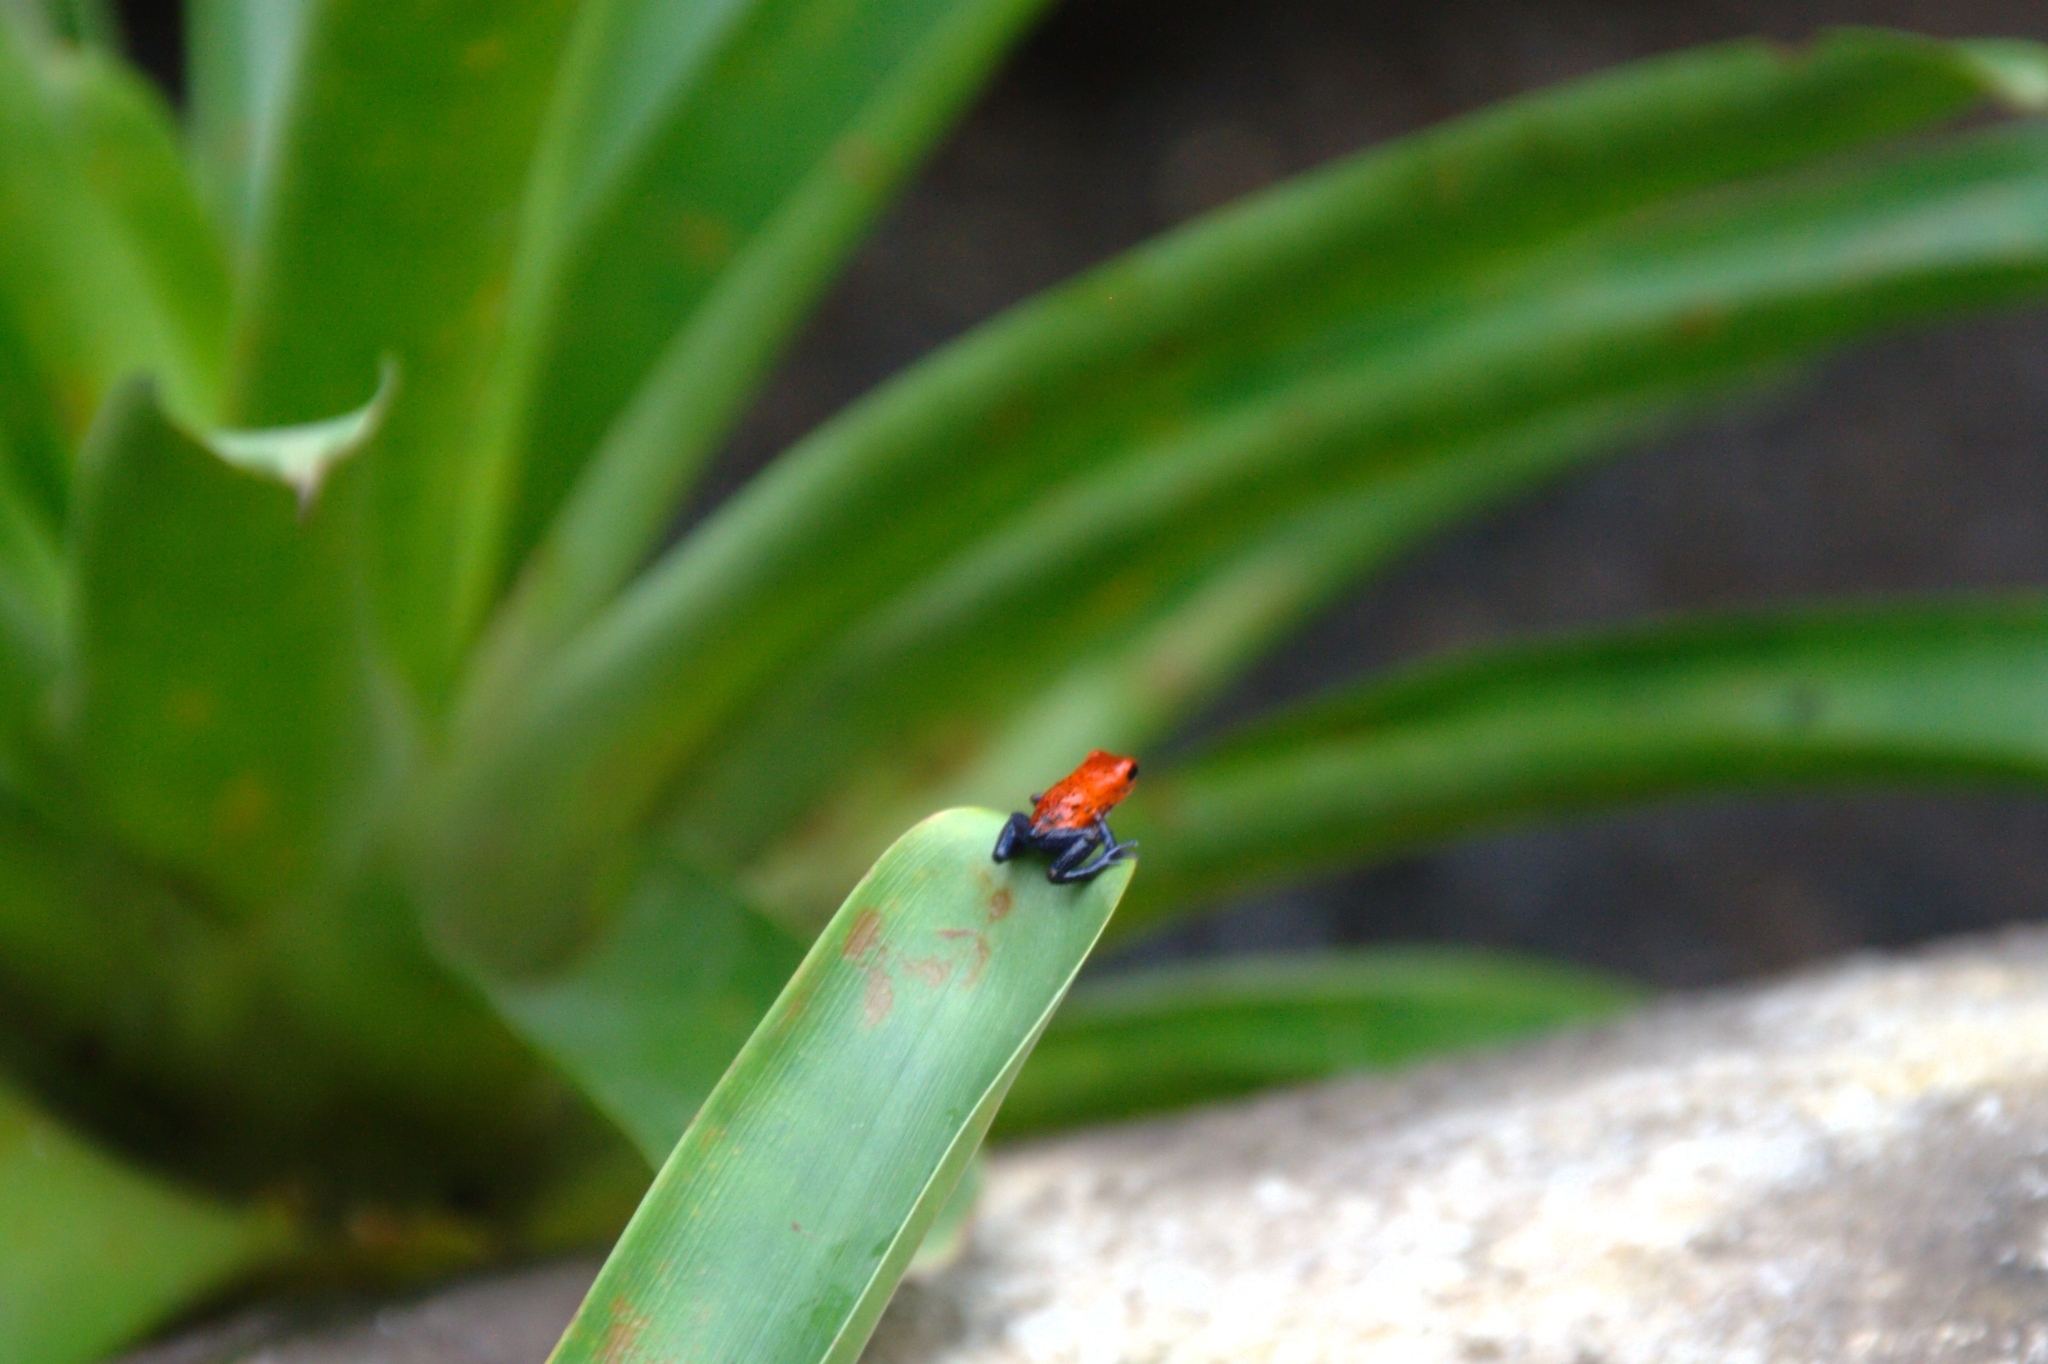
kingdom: Animalia
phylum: Chordata
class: Amphibia
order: Anura
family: Dendrobatidae
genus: Oophaga
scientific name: Oophaga pumilio
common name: Flaming poison frog
